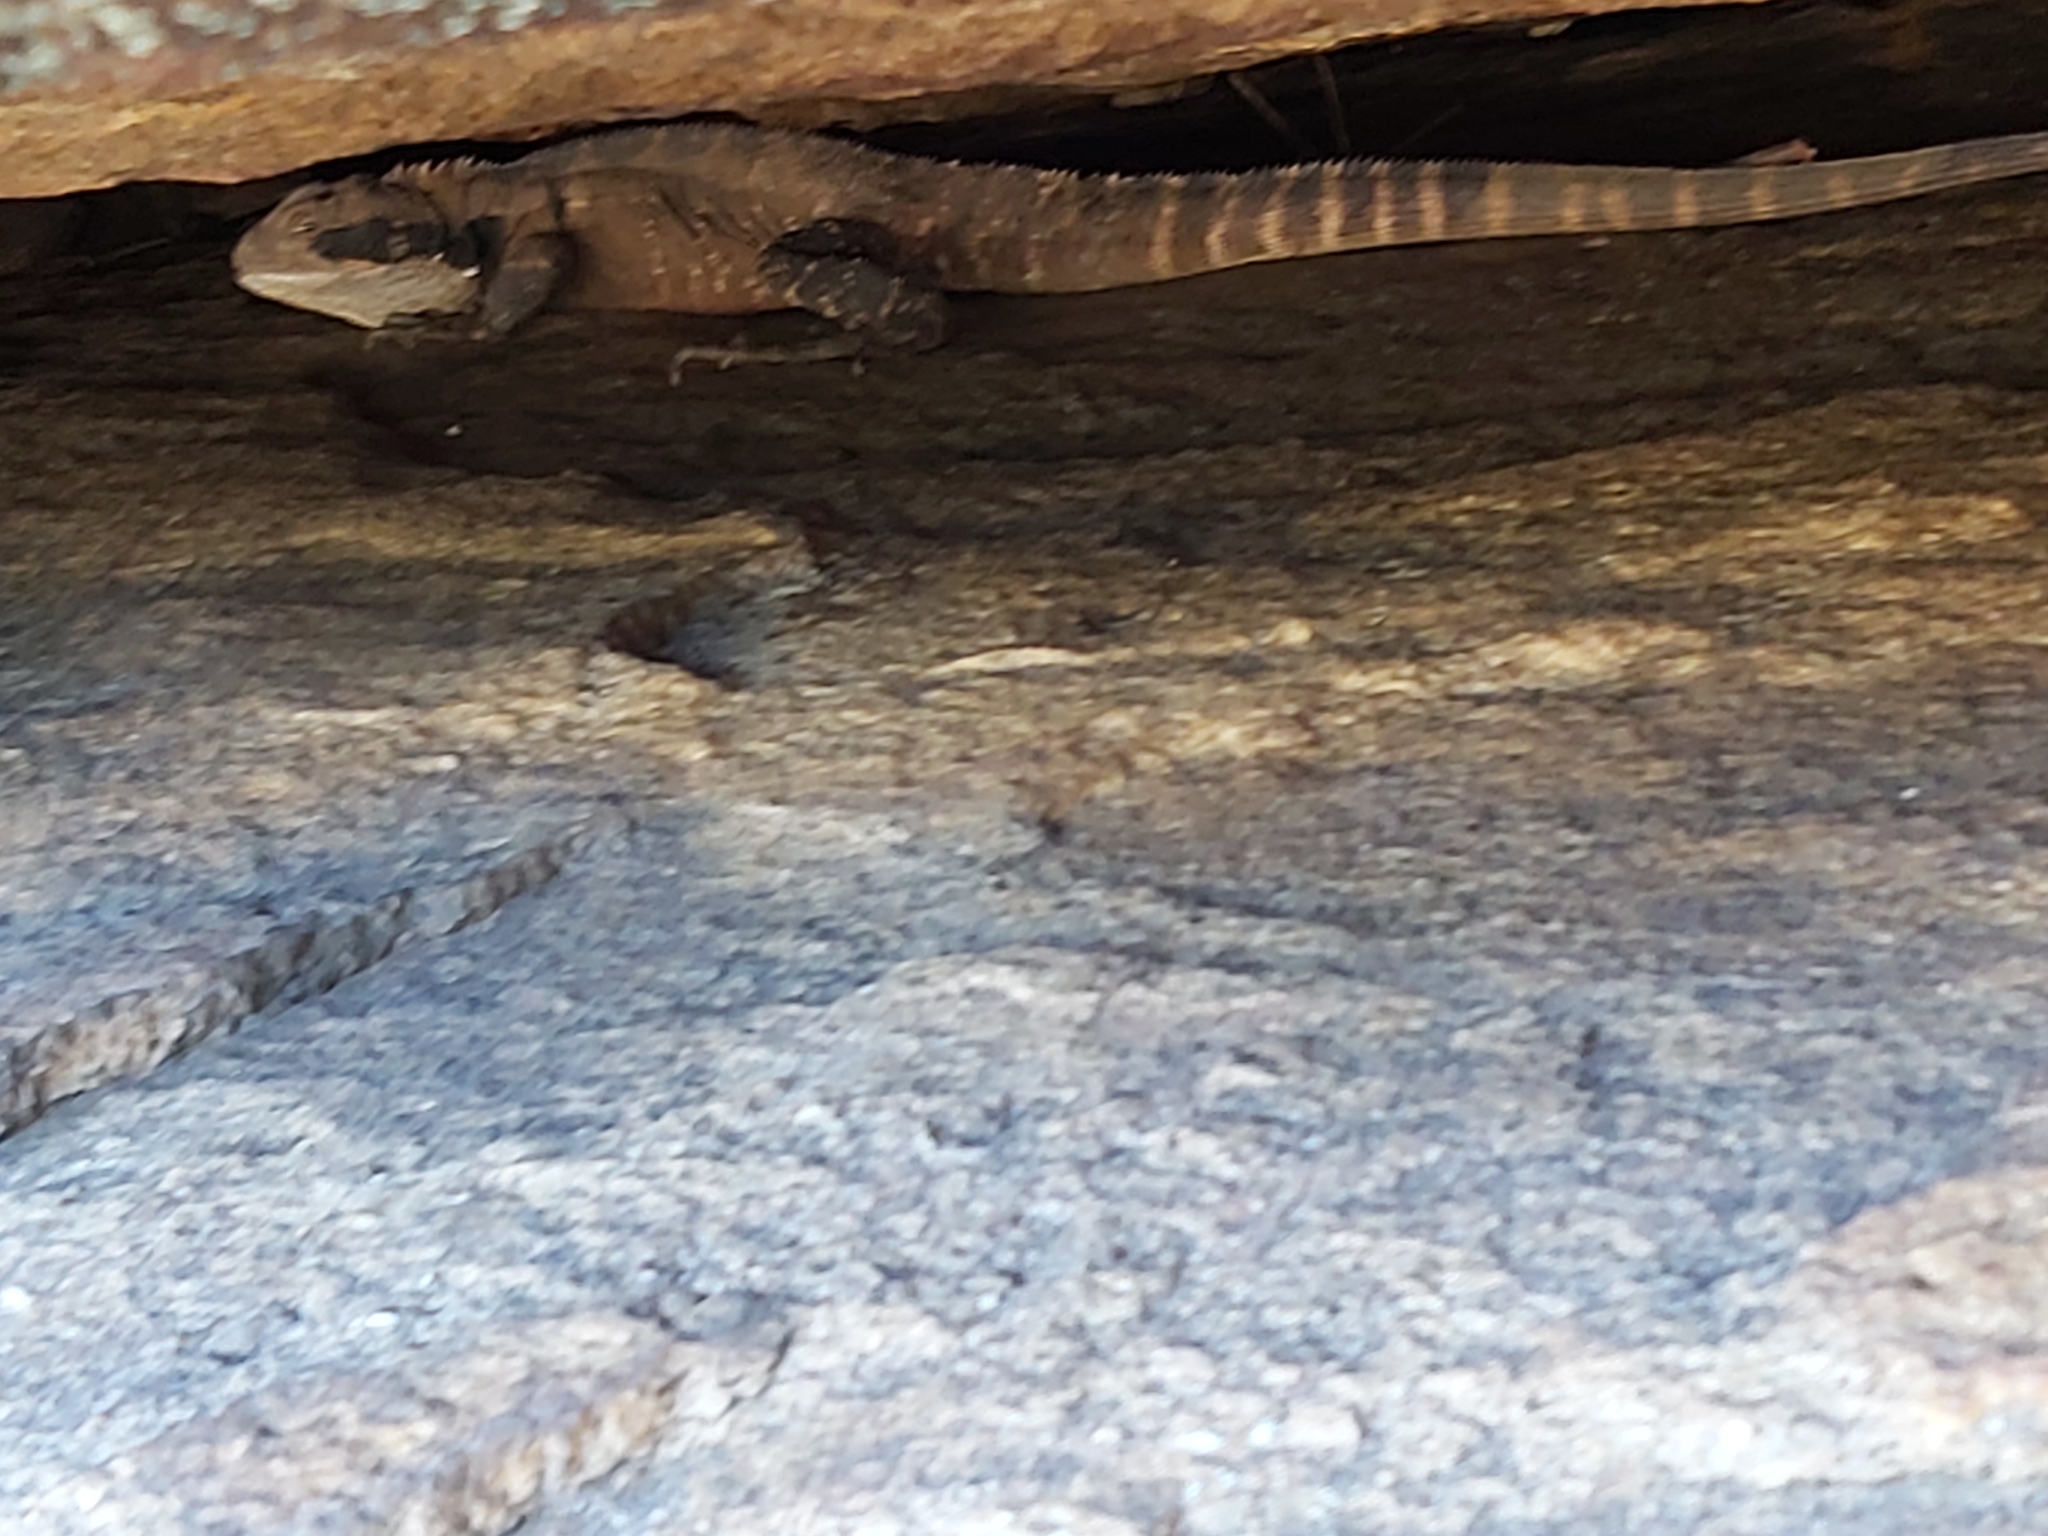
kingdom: Animalia
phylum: Chordata
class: Squamata
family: Agamidae
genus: Intellagama
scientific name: Intellagama lesueurii
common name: Eastern water dragon
